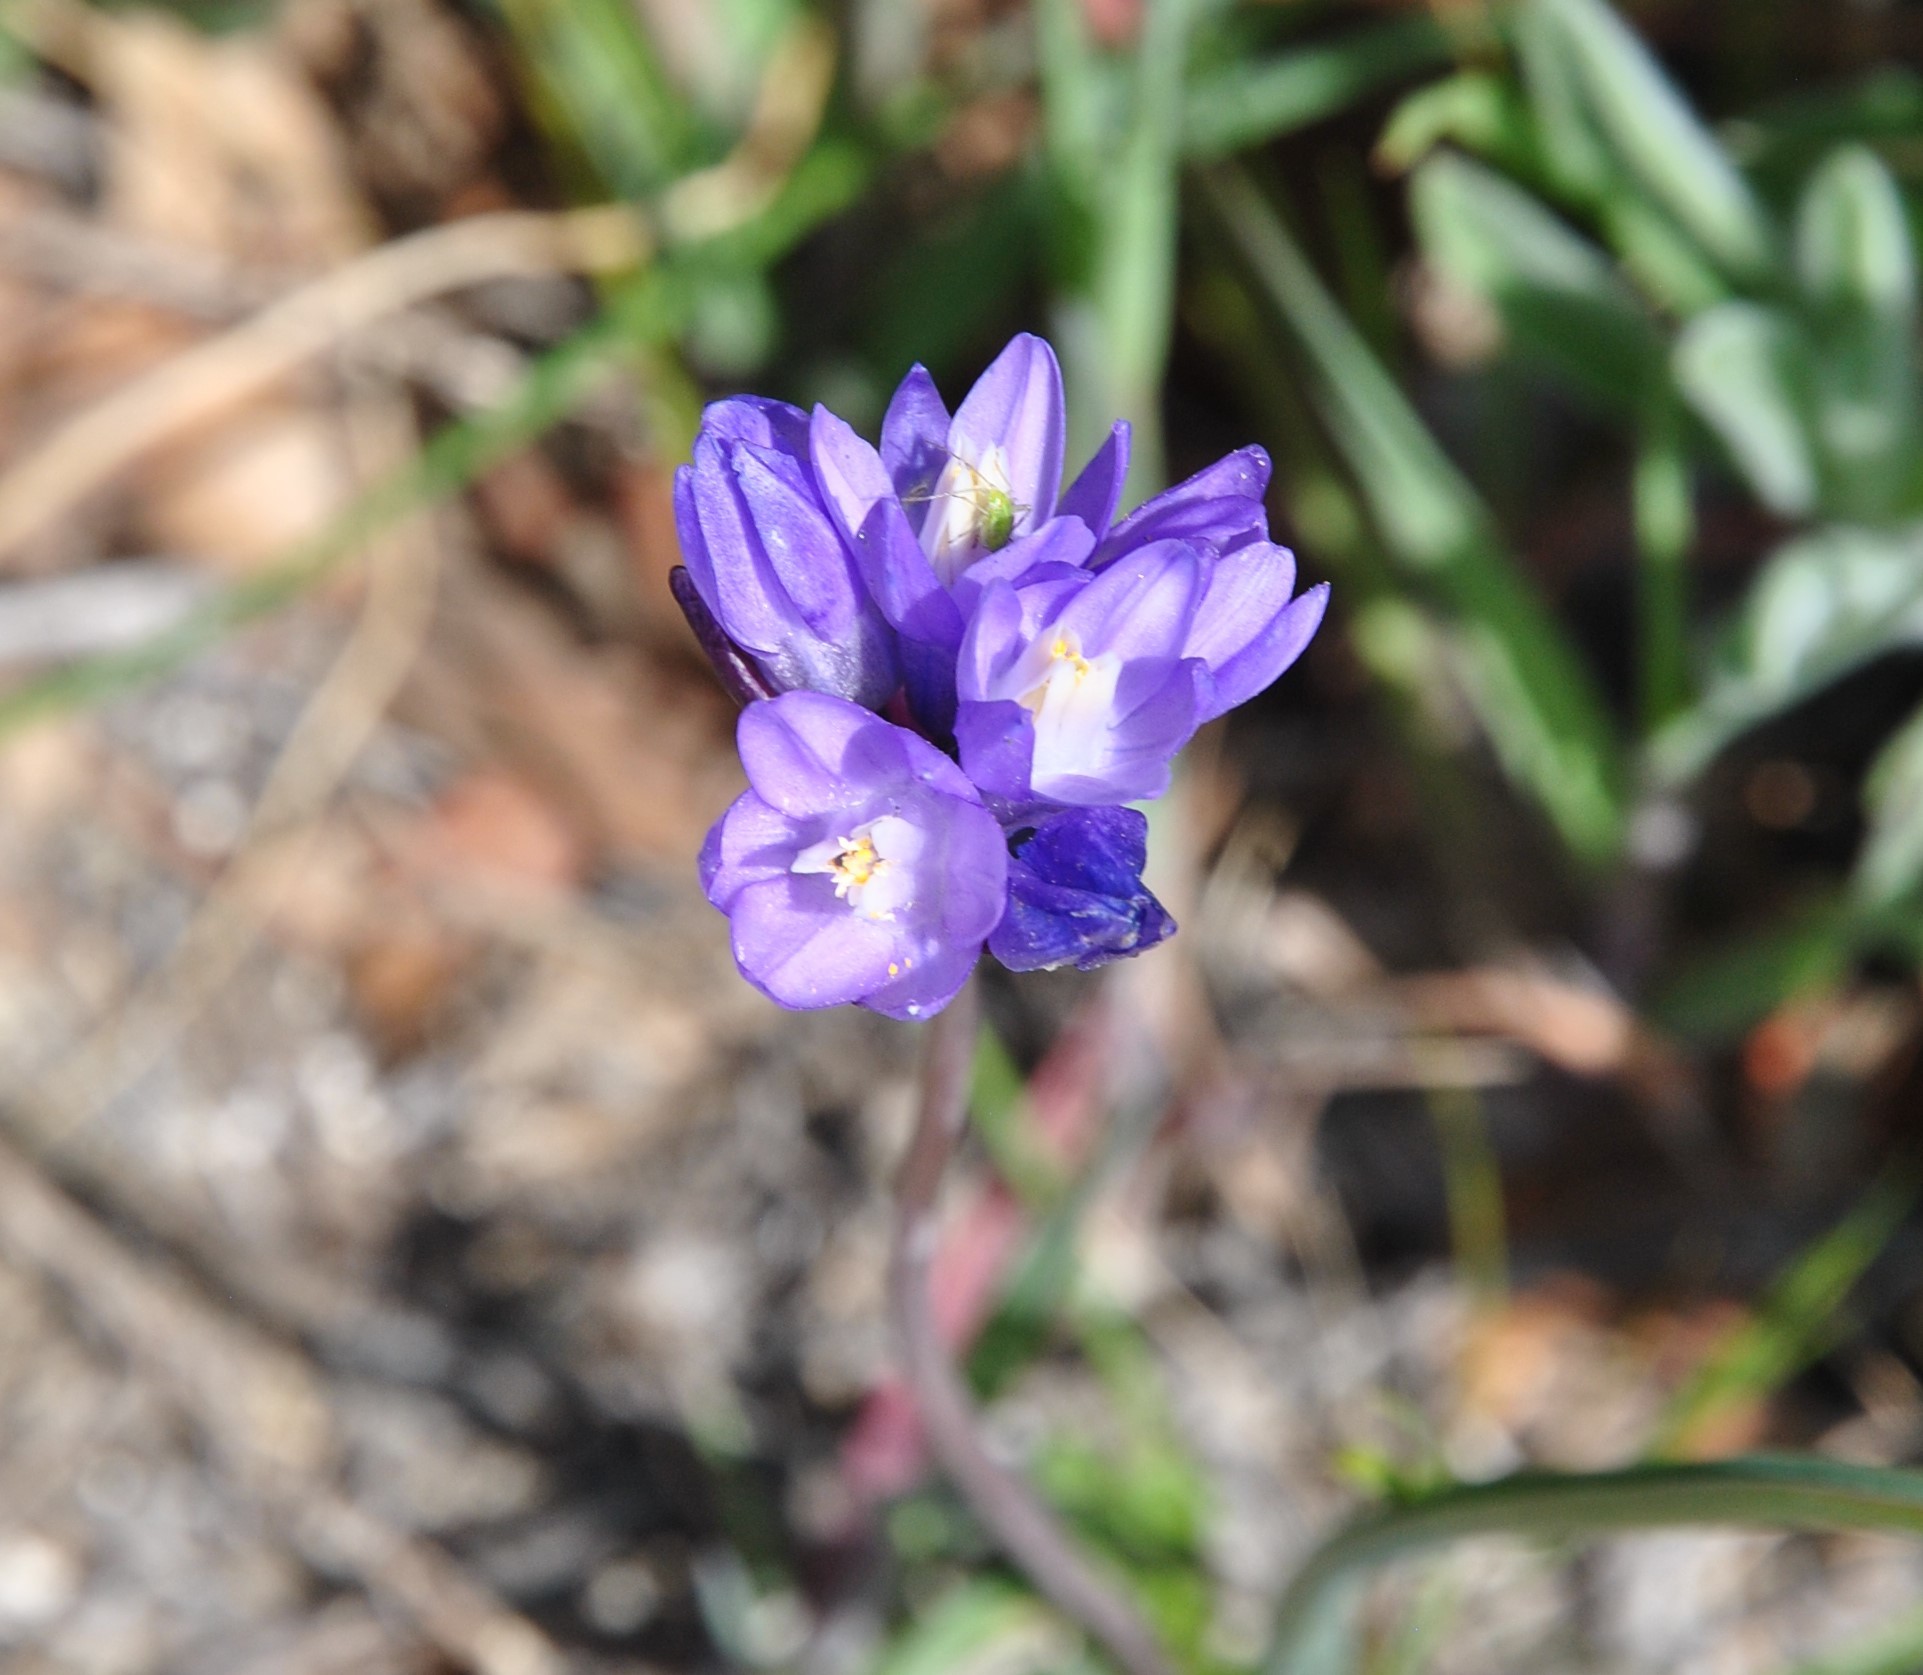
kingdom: Plantae
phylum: Tracheophyta
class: Liliopsida
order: Asparagales
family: Asparagaceae
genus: Dipterostemon
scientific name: Dipterostemon capitatus
